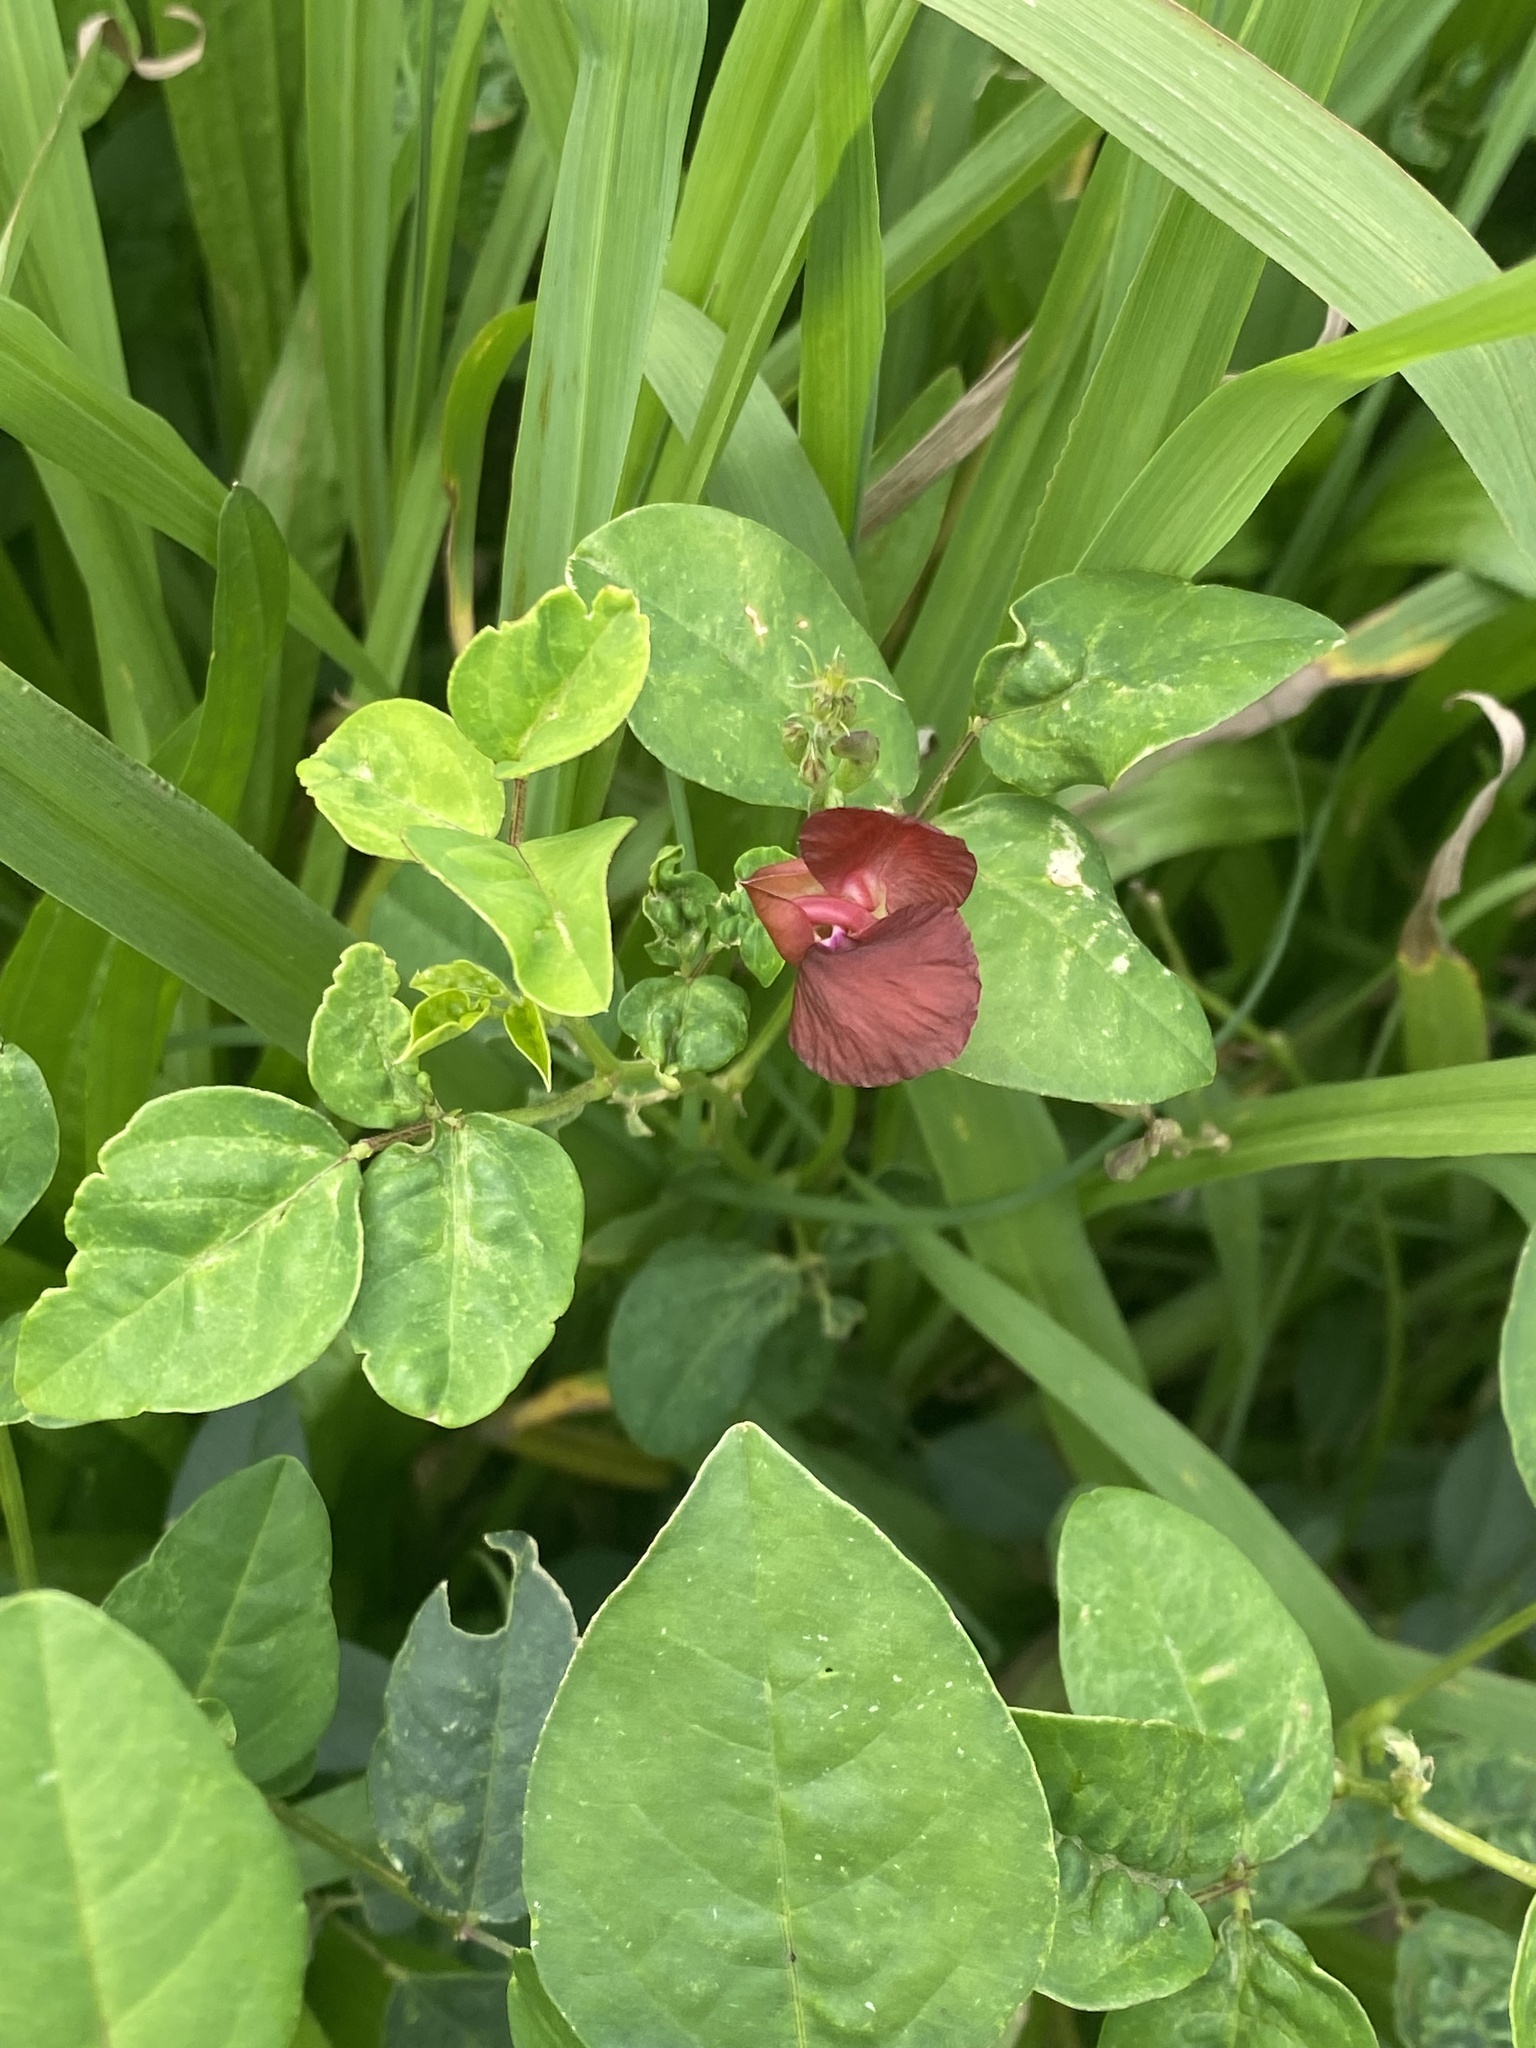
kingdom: Plantae
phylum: Tracheophyta
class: Magnoliopsida
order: Fabales
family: Fabaceae
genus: Macroptilium
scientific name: Macroptilium lathyroides
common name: Wild bushbean
